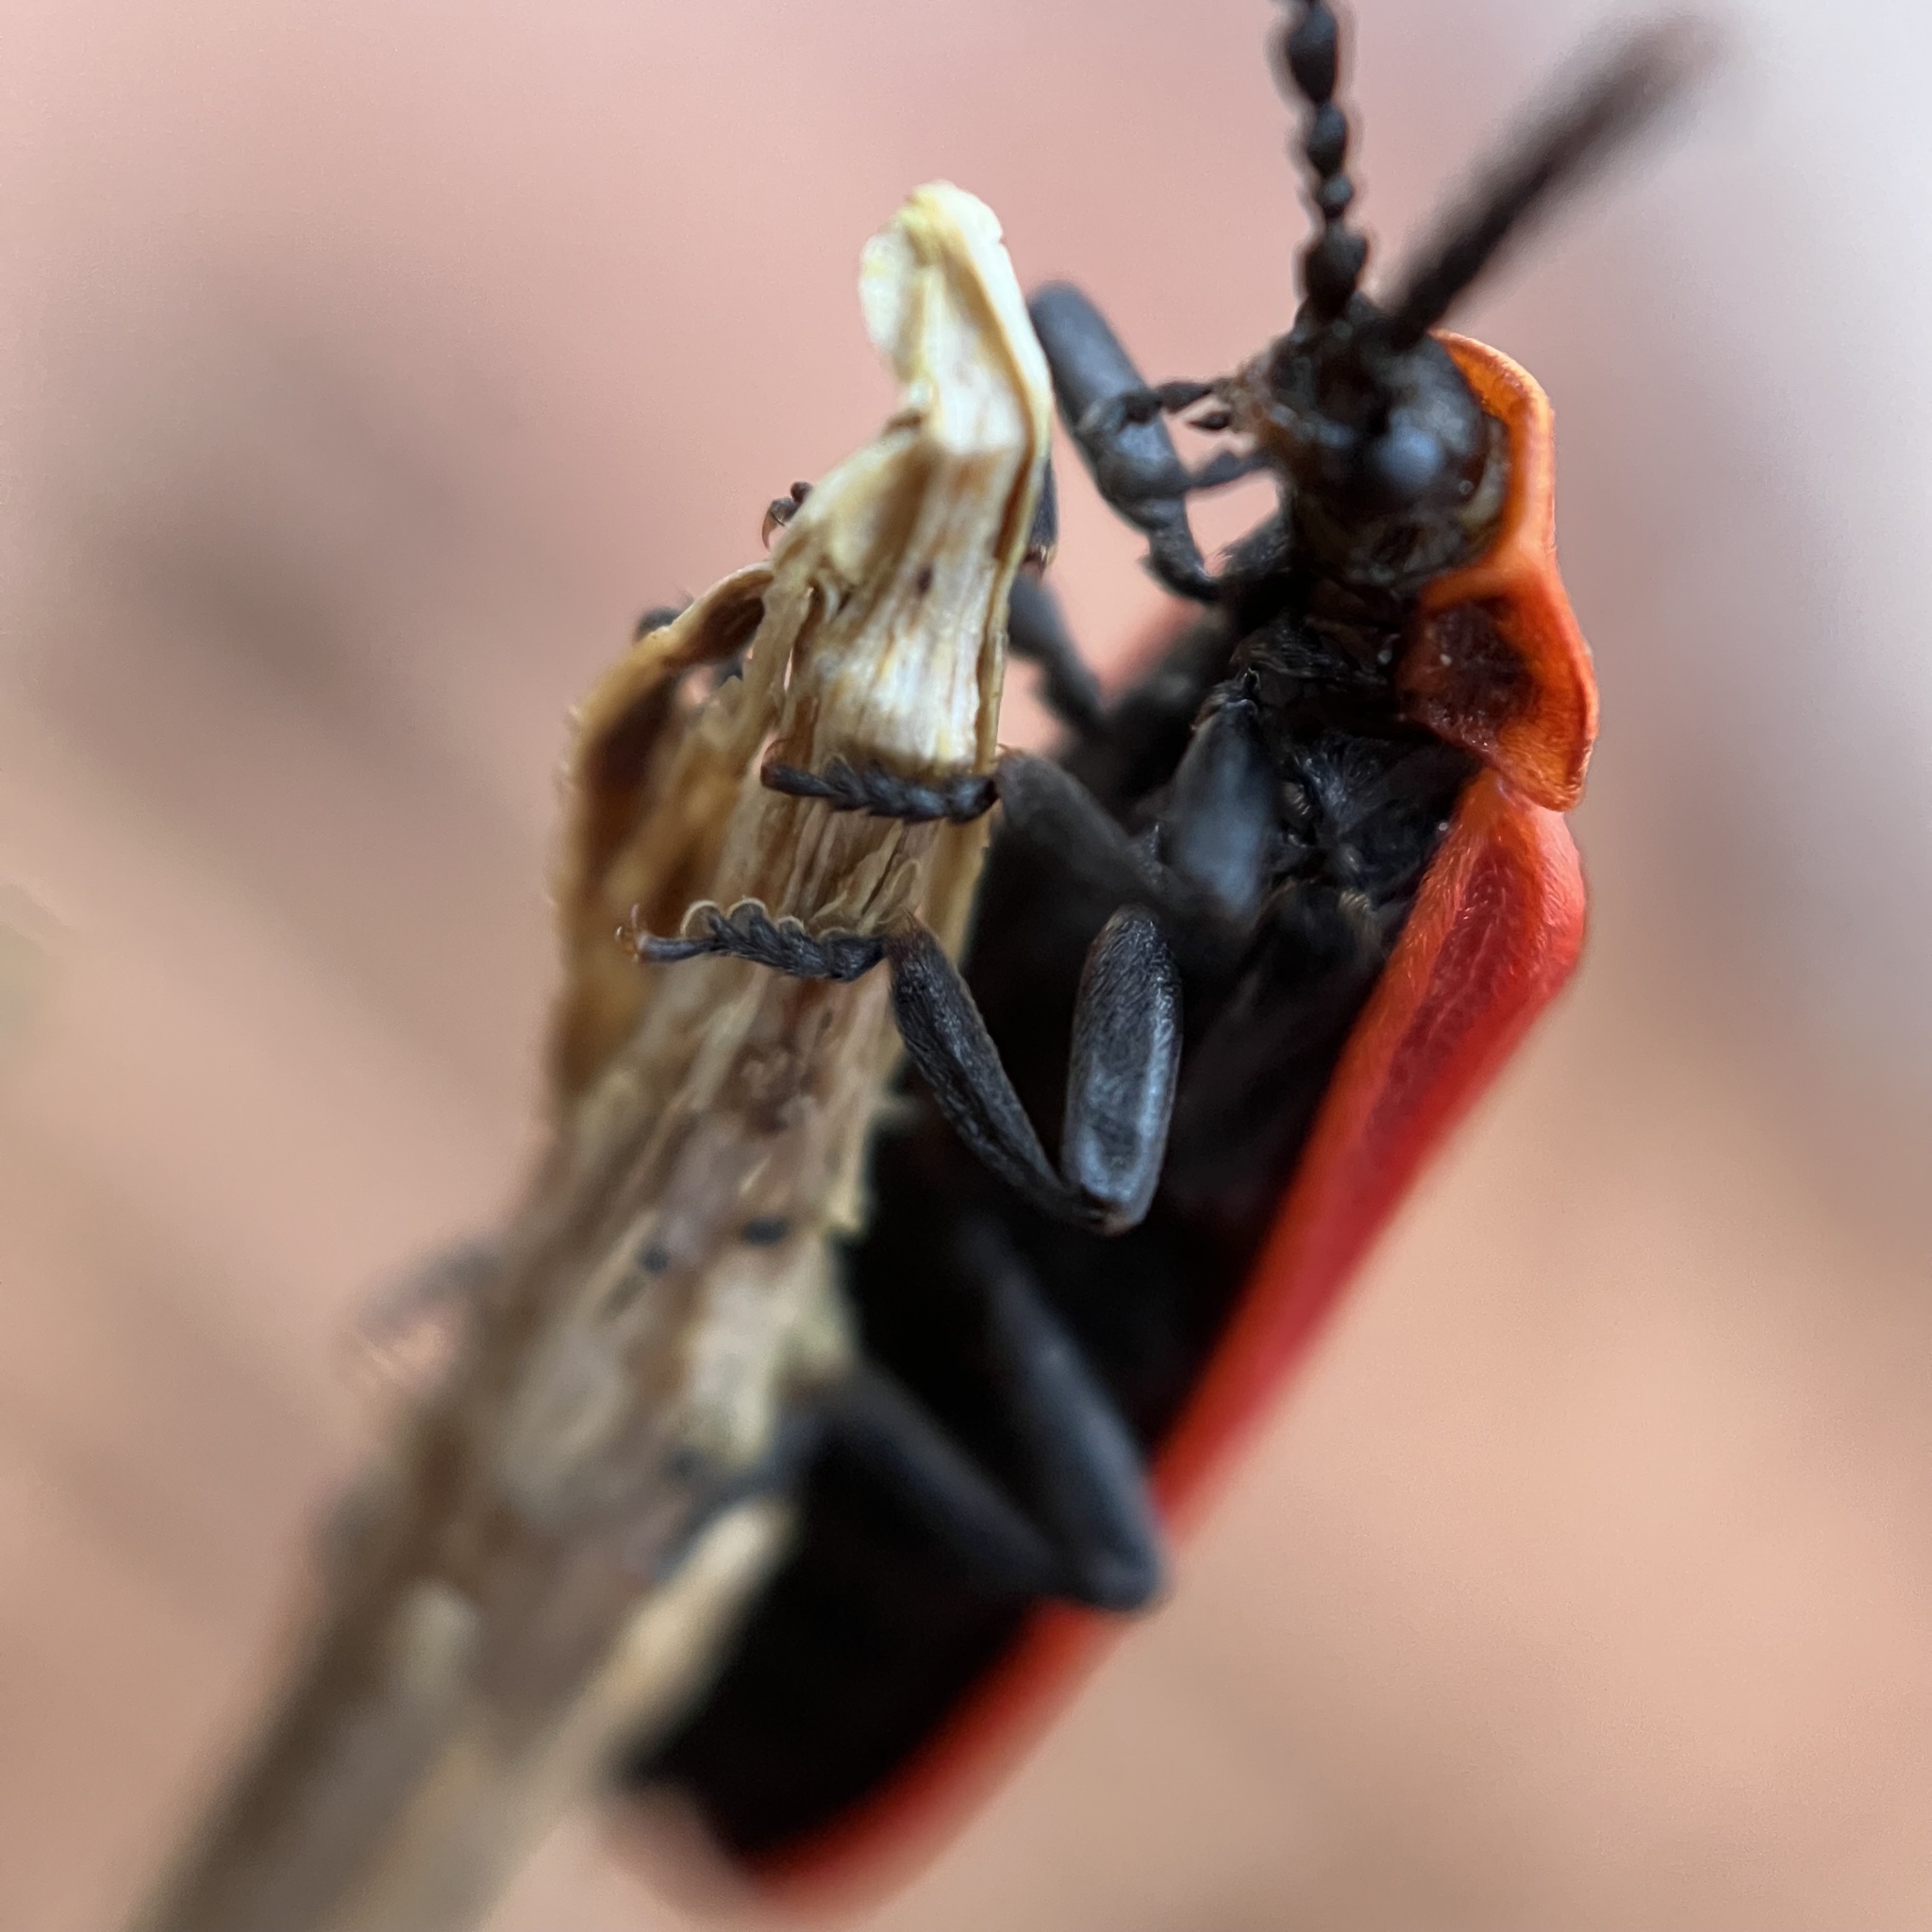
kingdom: Animalia
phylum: Arthropoda
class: Insecta
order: Coleoptera
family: Lycidae
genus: Dictyoptera
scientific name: Dictyoptera aurora
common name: Golden net-winged beetle
